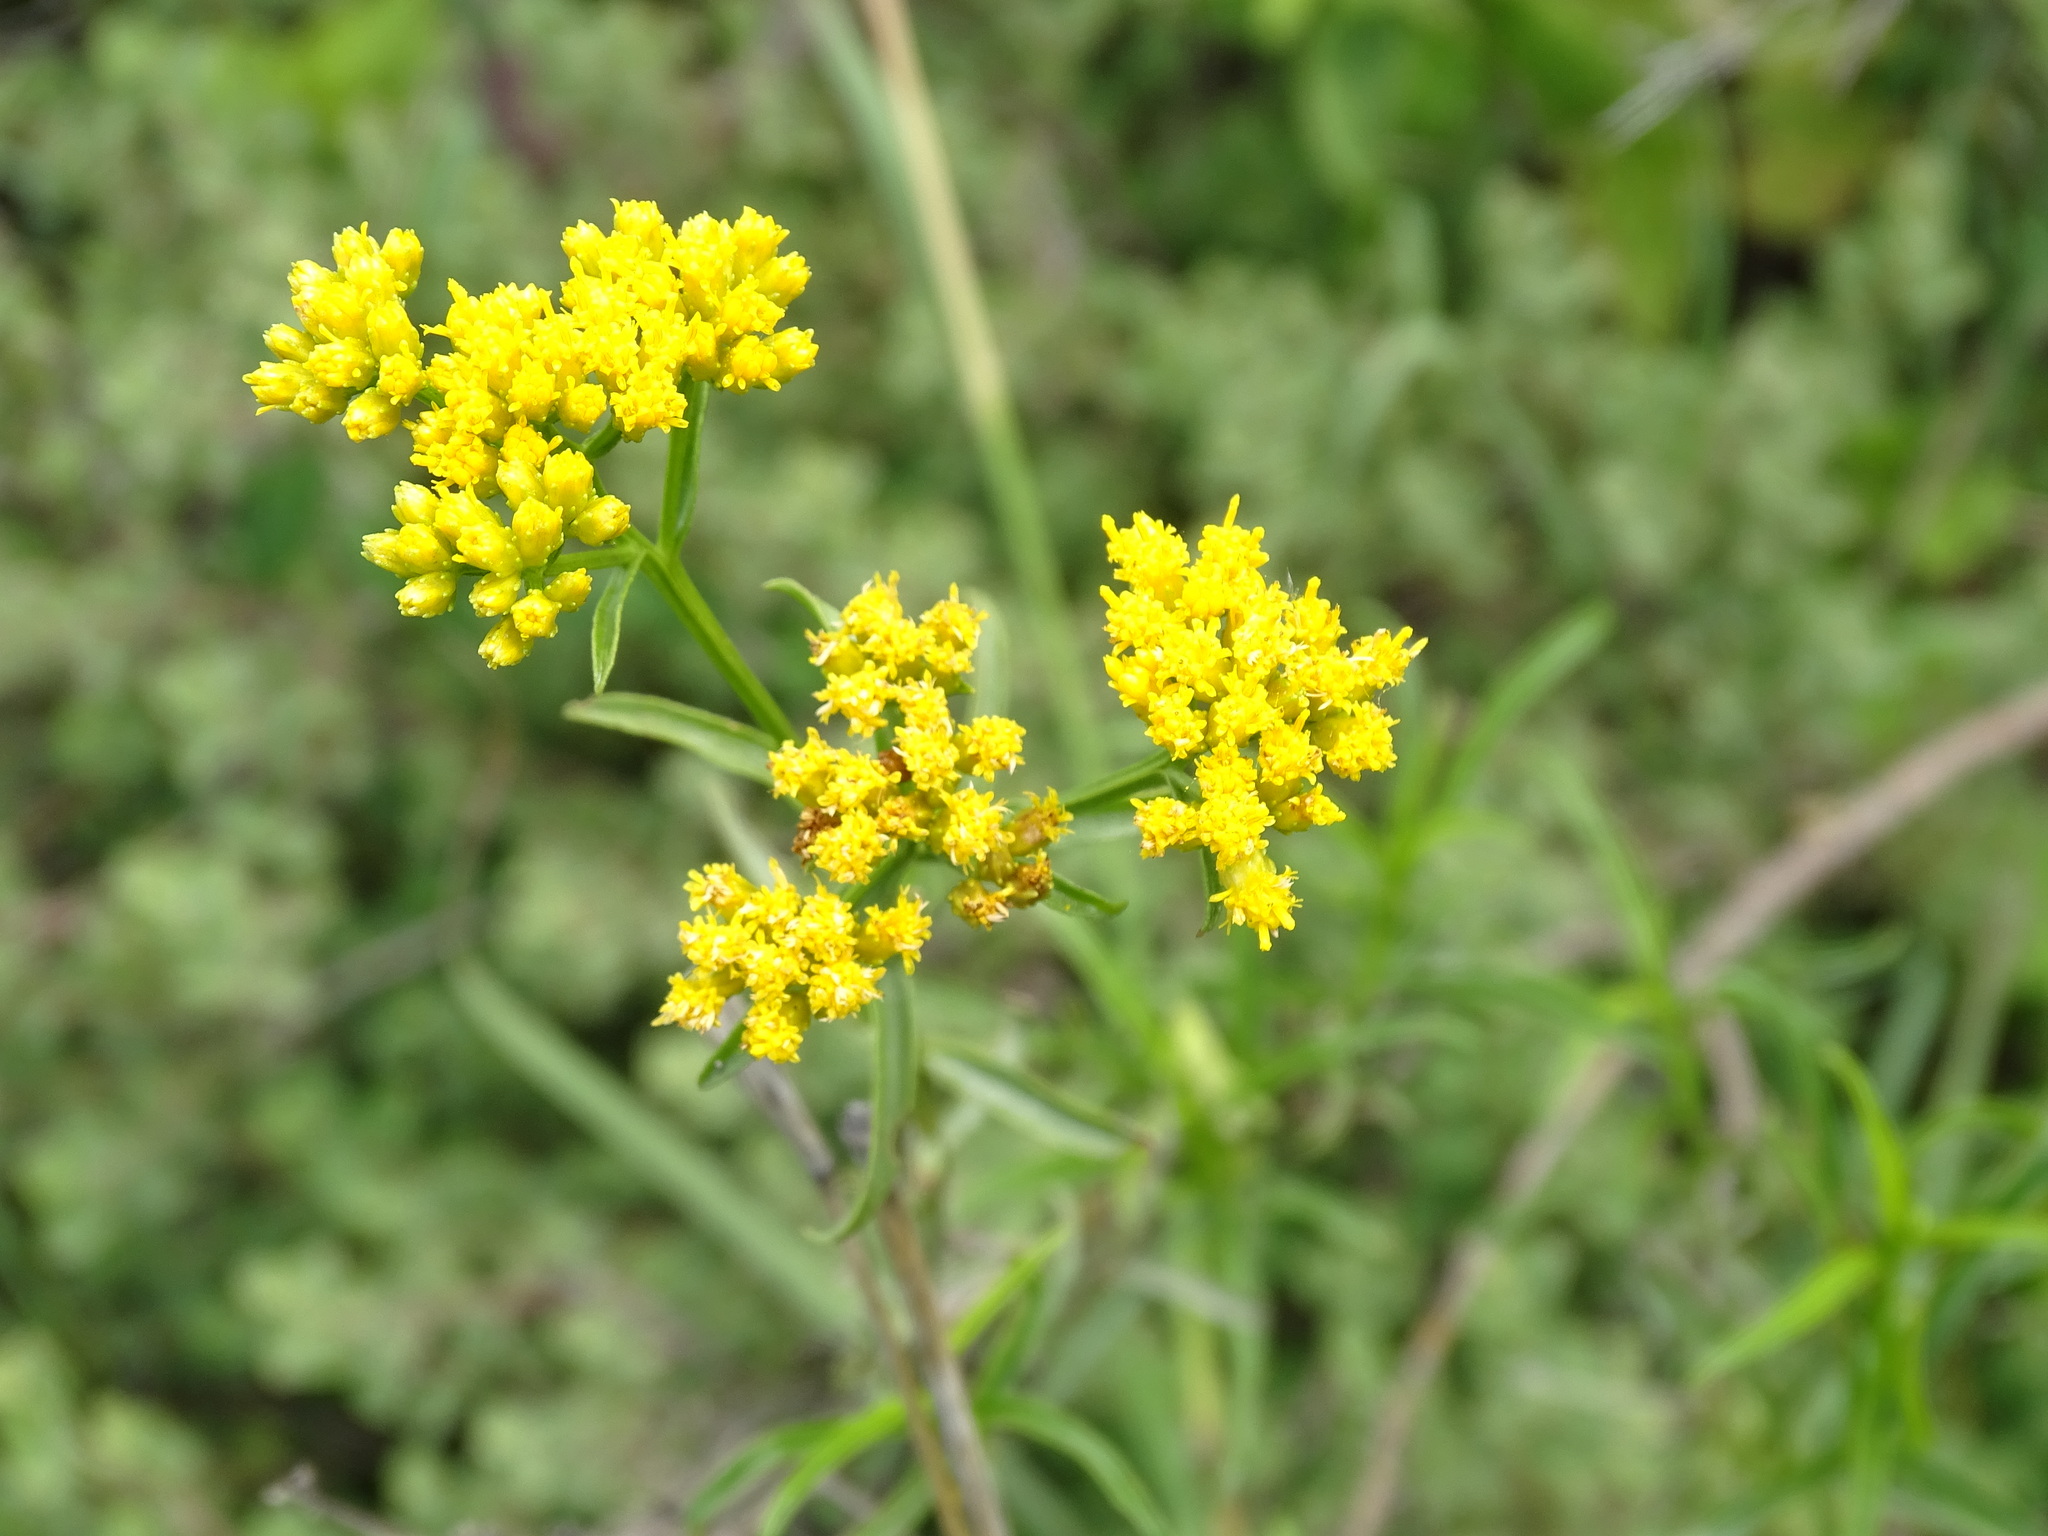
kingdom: Plantae
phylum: Tracheophyta
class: Magnoliopsida
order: Asterales
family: Asteraceae
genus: Gymnosperma
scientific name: Gymnosperma glutinosum
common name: Gumhead
